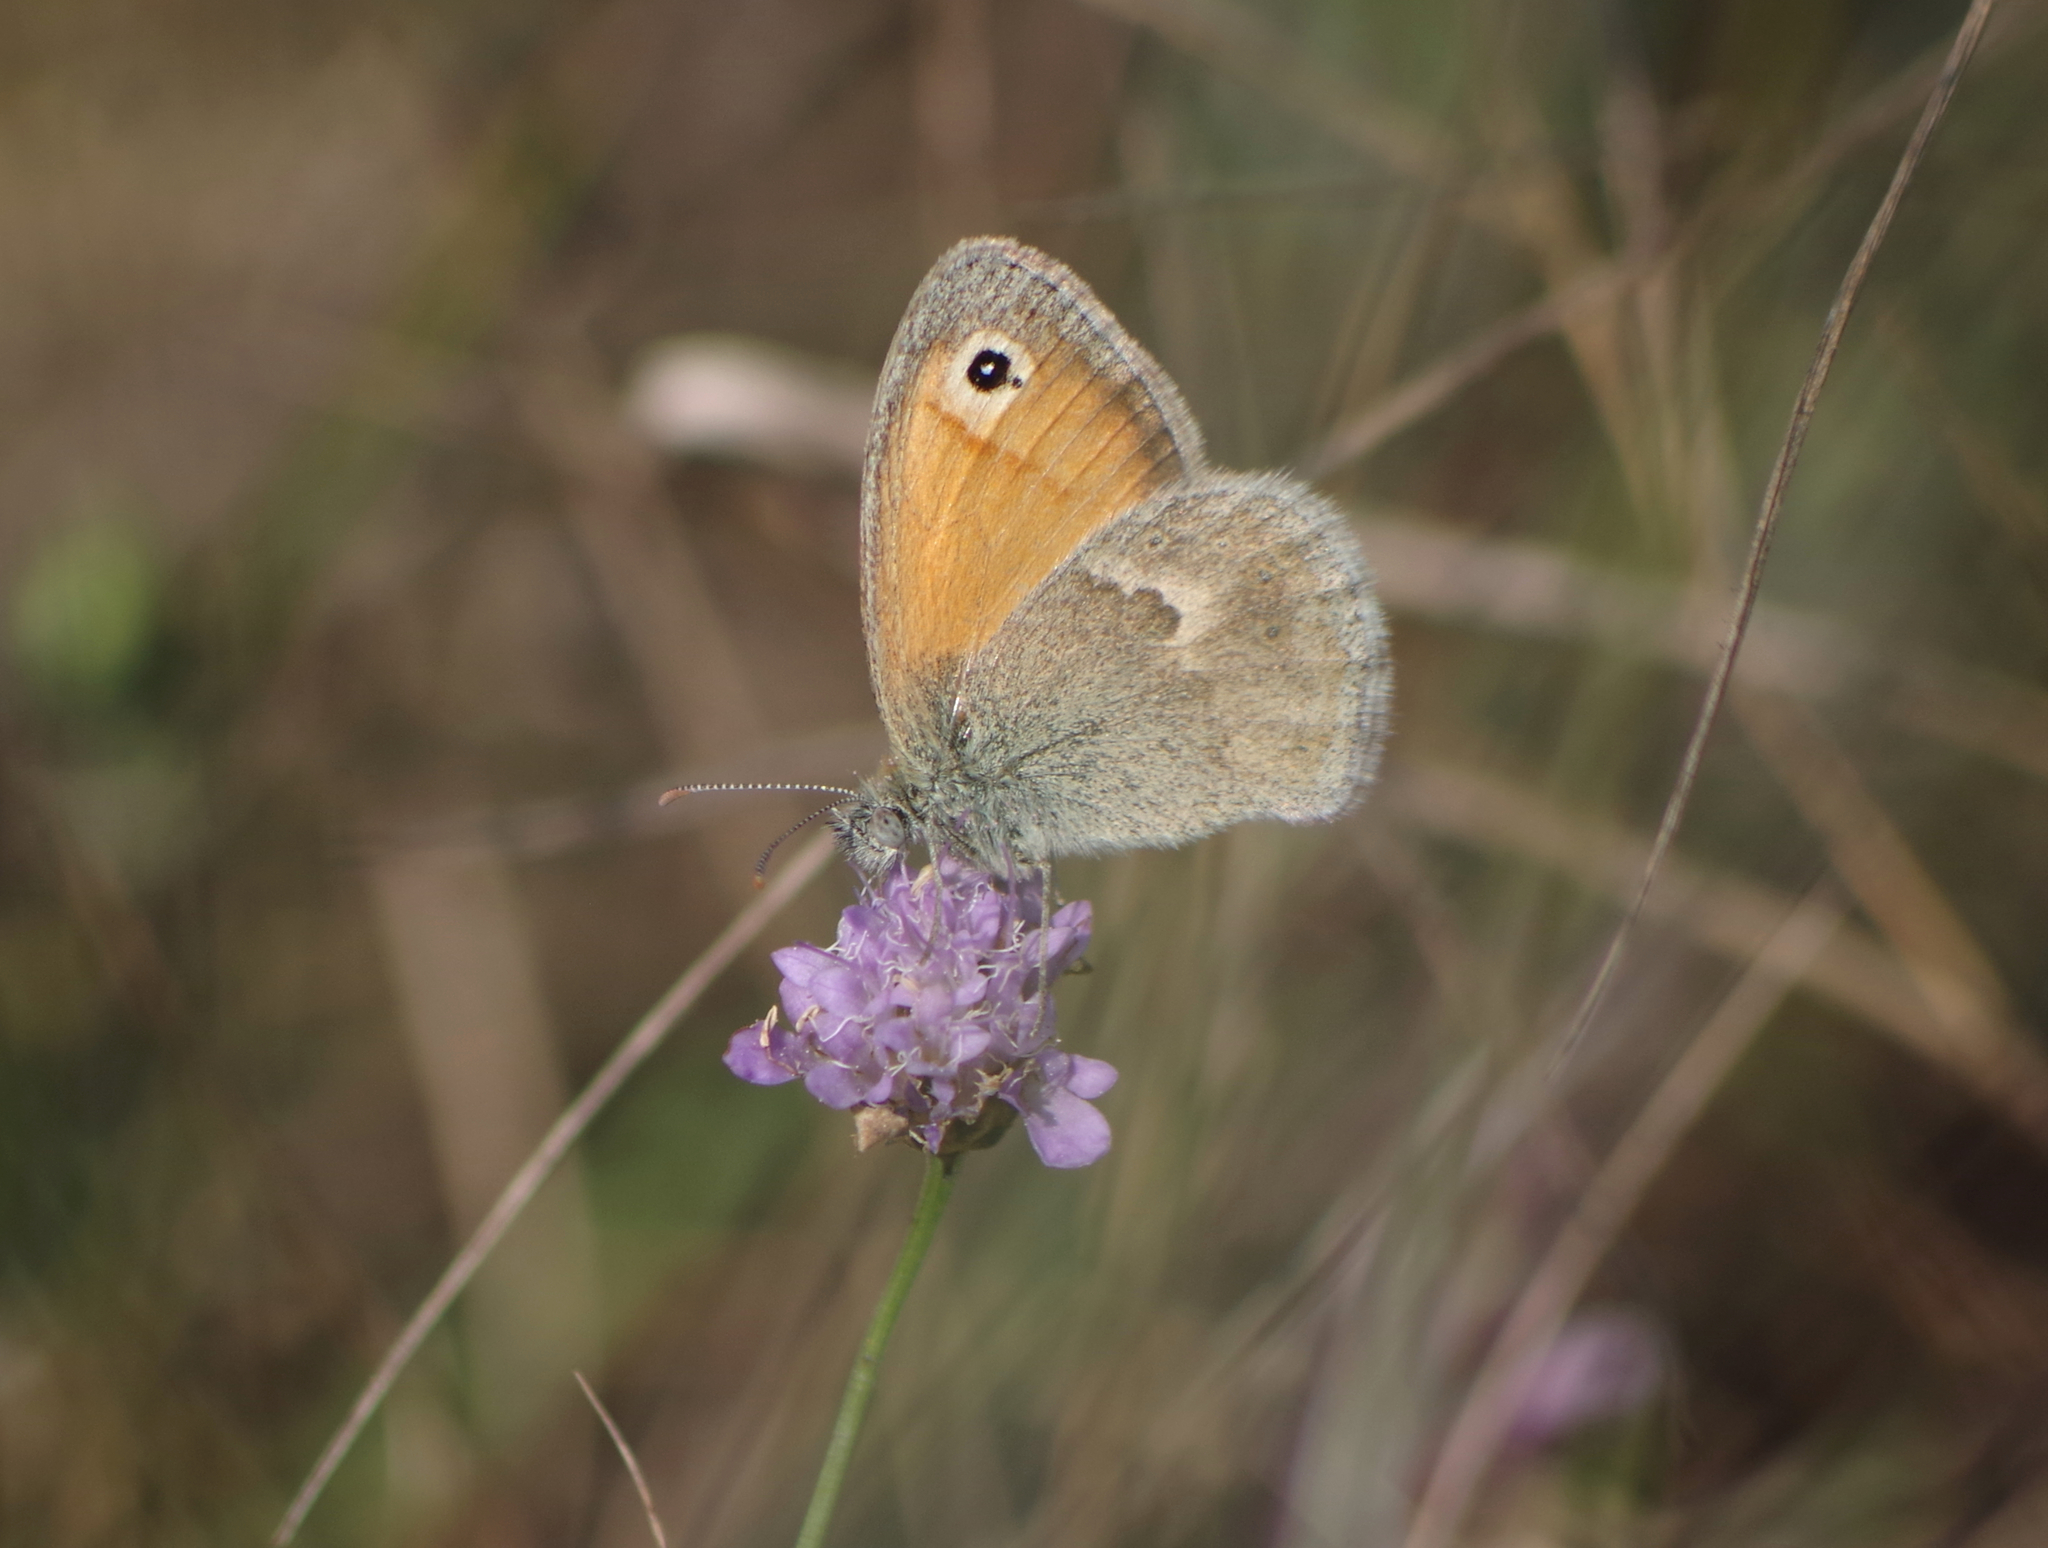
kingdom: Animalia
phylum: Arthropoda
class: Insecta
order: Lepidoptera
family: Nymphalidae
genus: Coenonympha
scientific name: Coenonympha pamphilus
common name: Small heath
